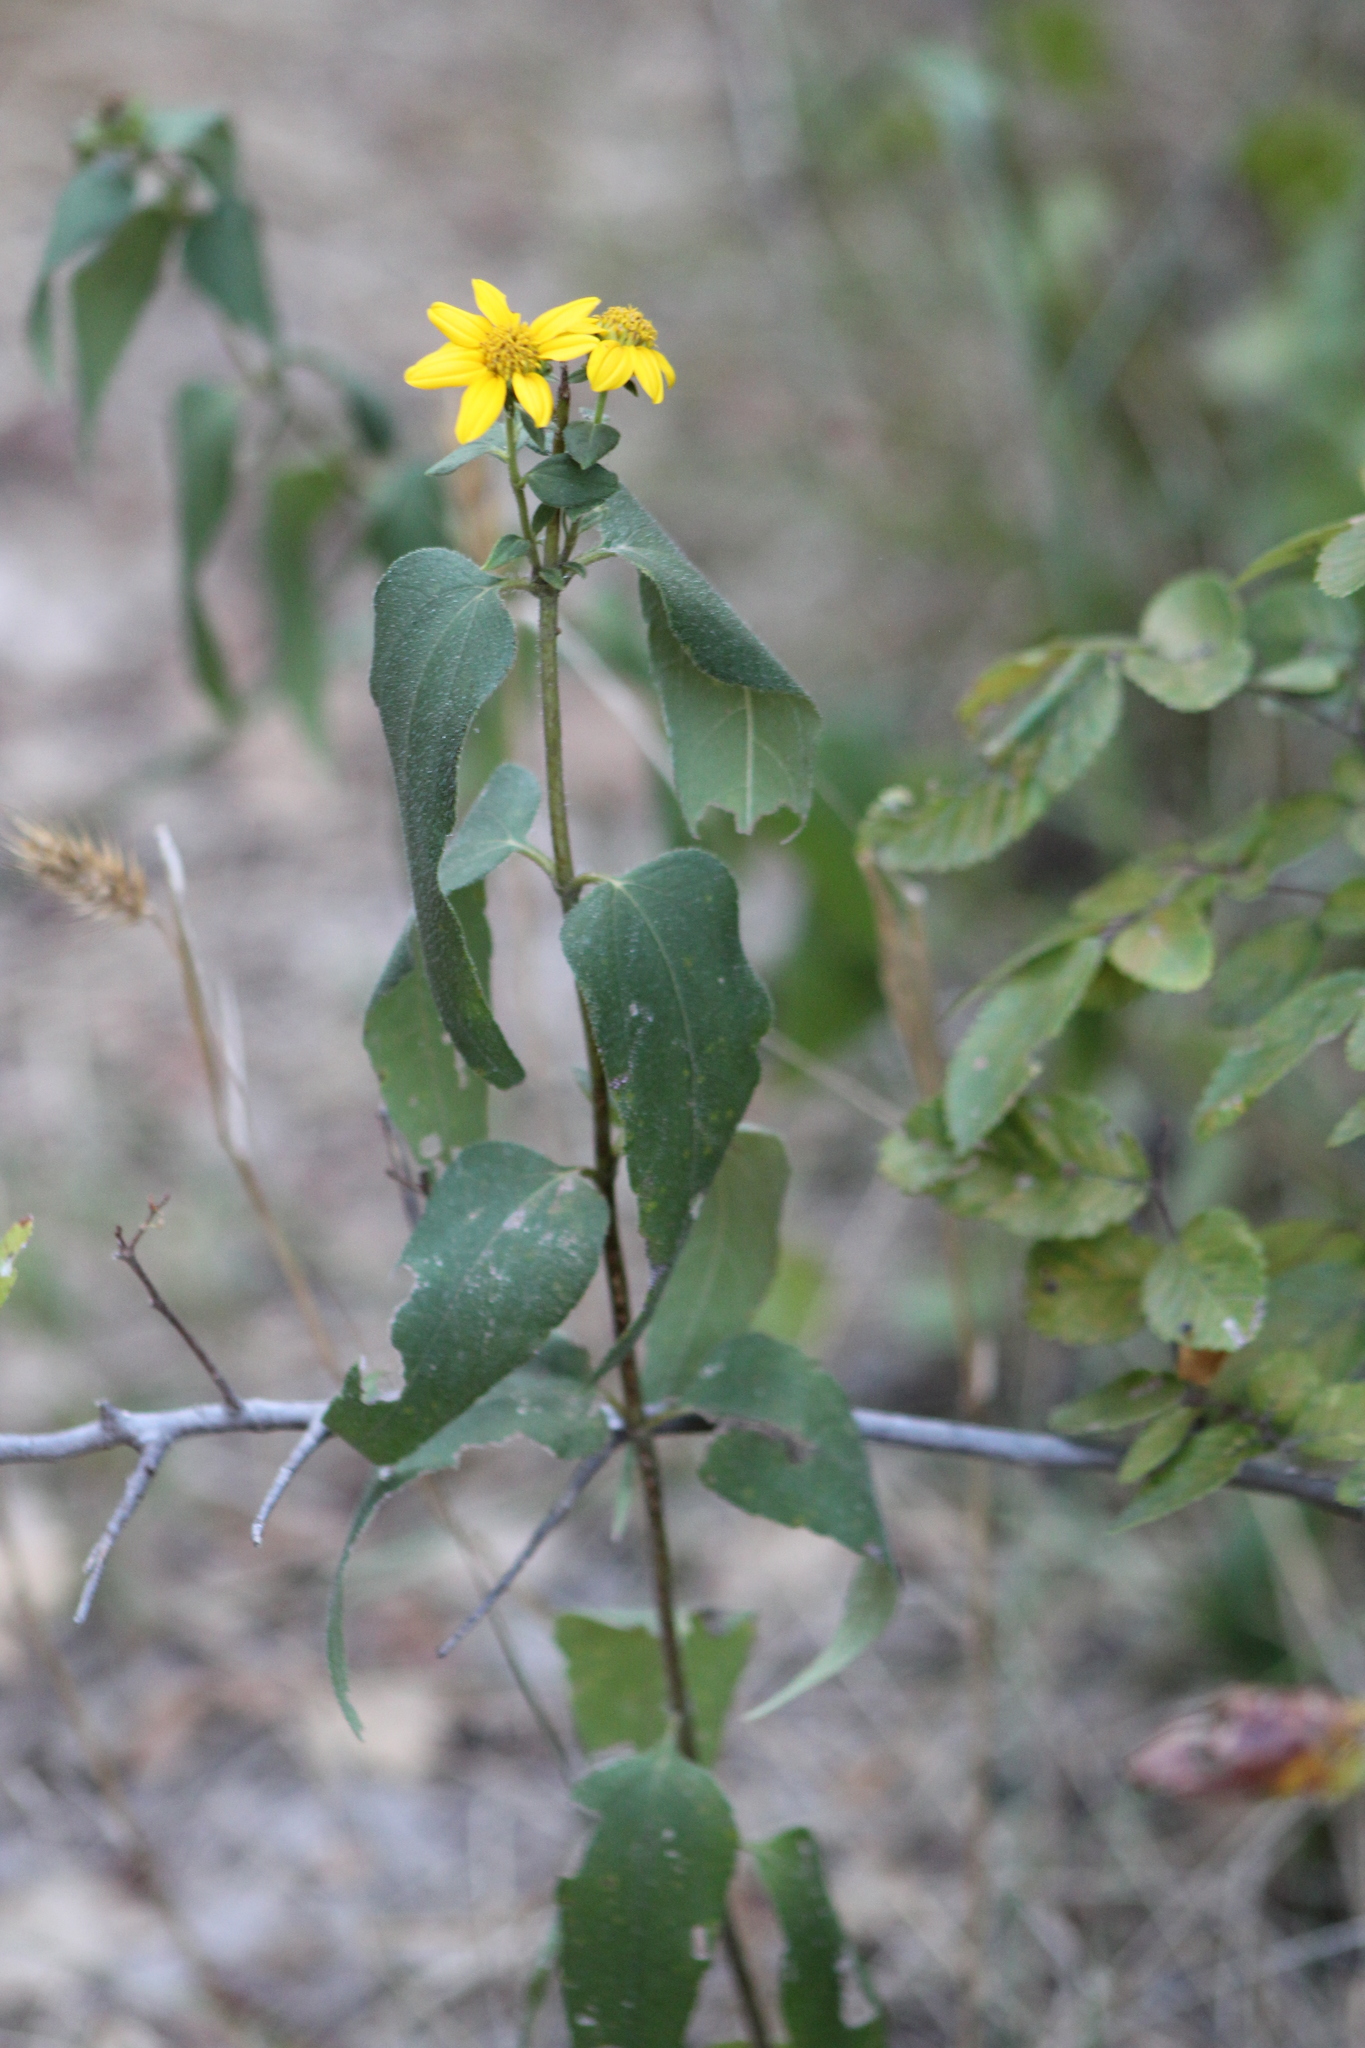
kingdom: Plantae
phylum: Tracheophyta
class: Magnoliopsida
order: Asterales
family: Asteraceae
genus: Helianthus
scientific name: Helianthus hirsutus
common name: Hairy sunflower
